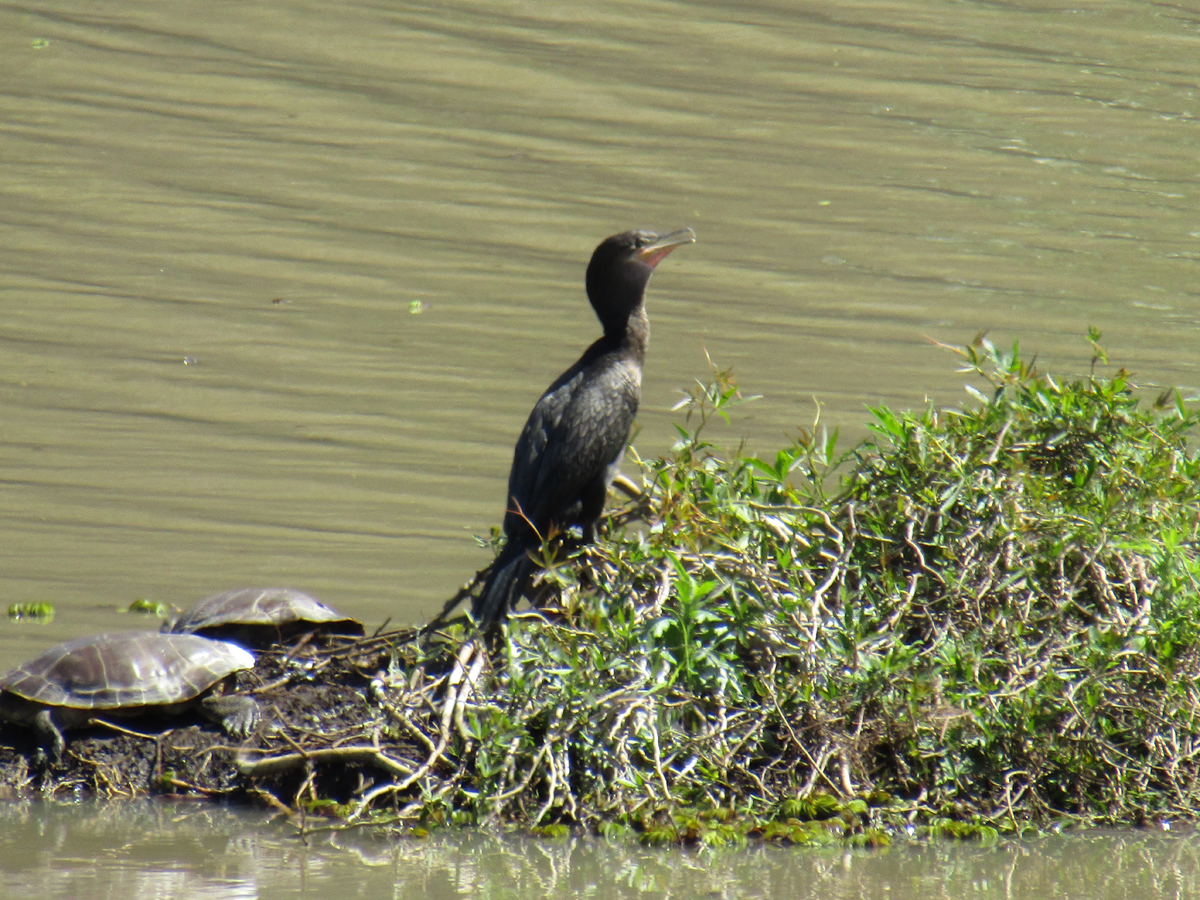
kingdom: Animalia
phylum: Chordata
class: Aves
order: Suliformes
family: Phalacrocoracidae
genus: Phalacrocorax
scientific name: Phalacrocorax brasilianus
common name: Neotropic cormorant
